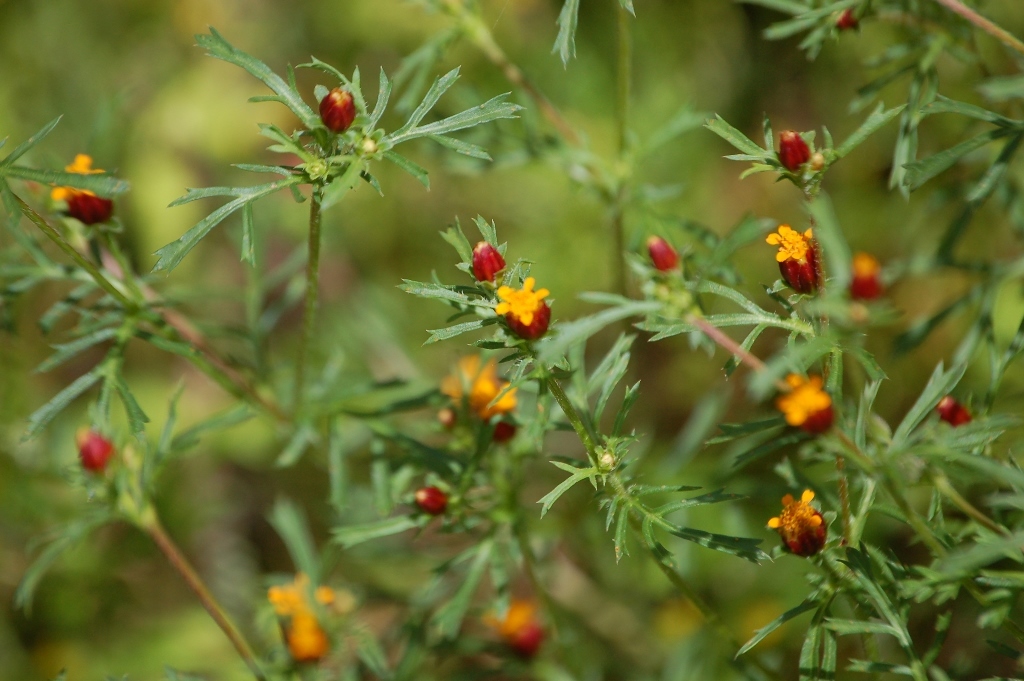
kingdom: Plantae
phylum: Tracheophyta
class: Magnoliopsida
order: Asterales
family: Asteraceae
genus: Dyssodia
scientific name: Dyssodia papposa
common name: Dogweed
